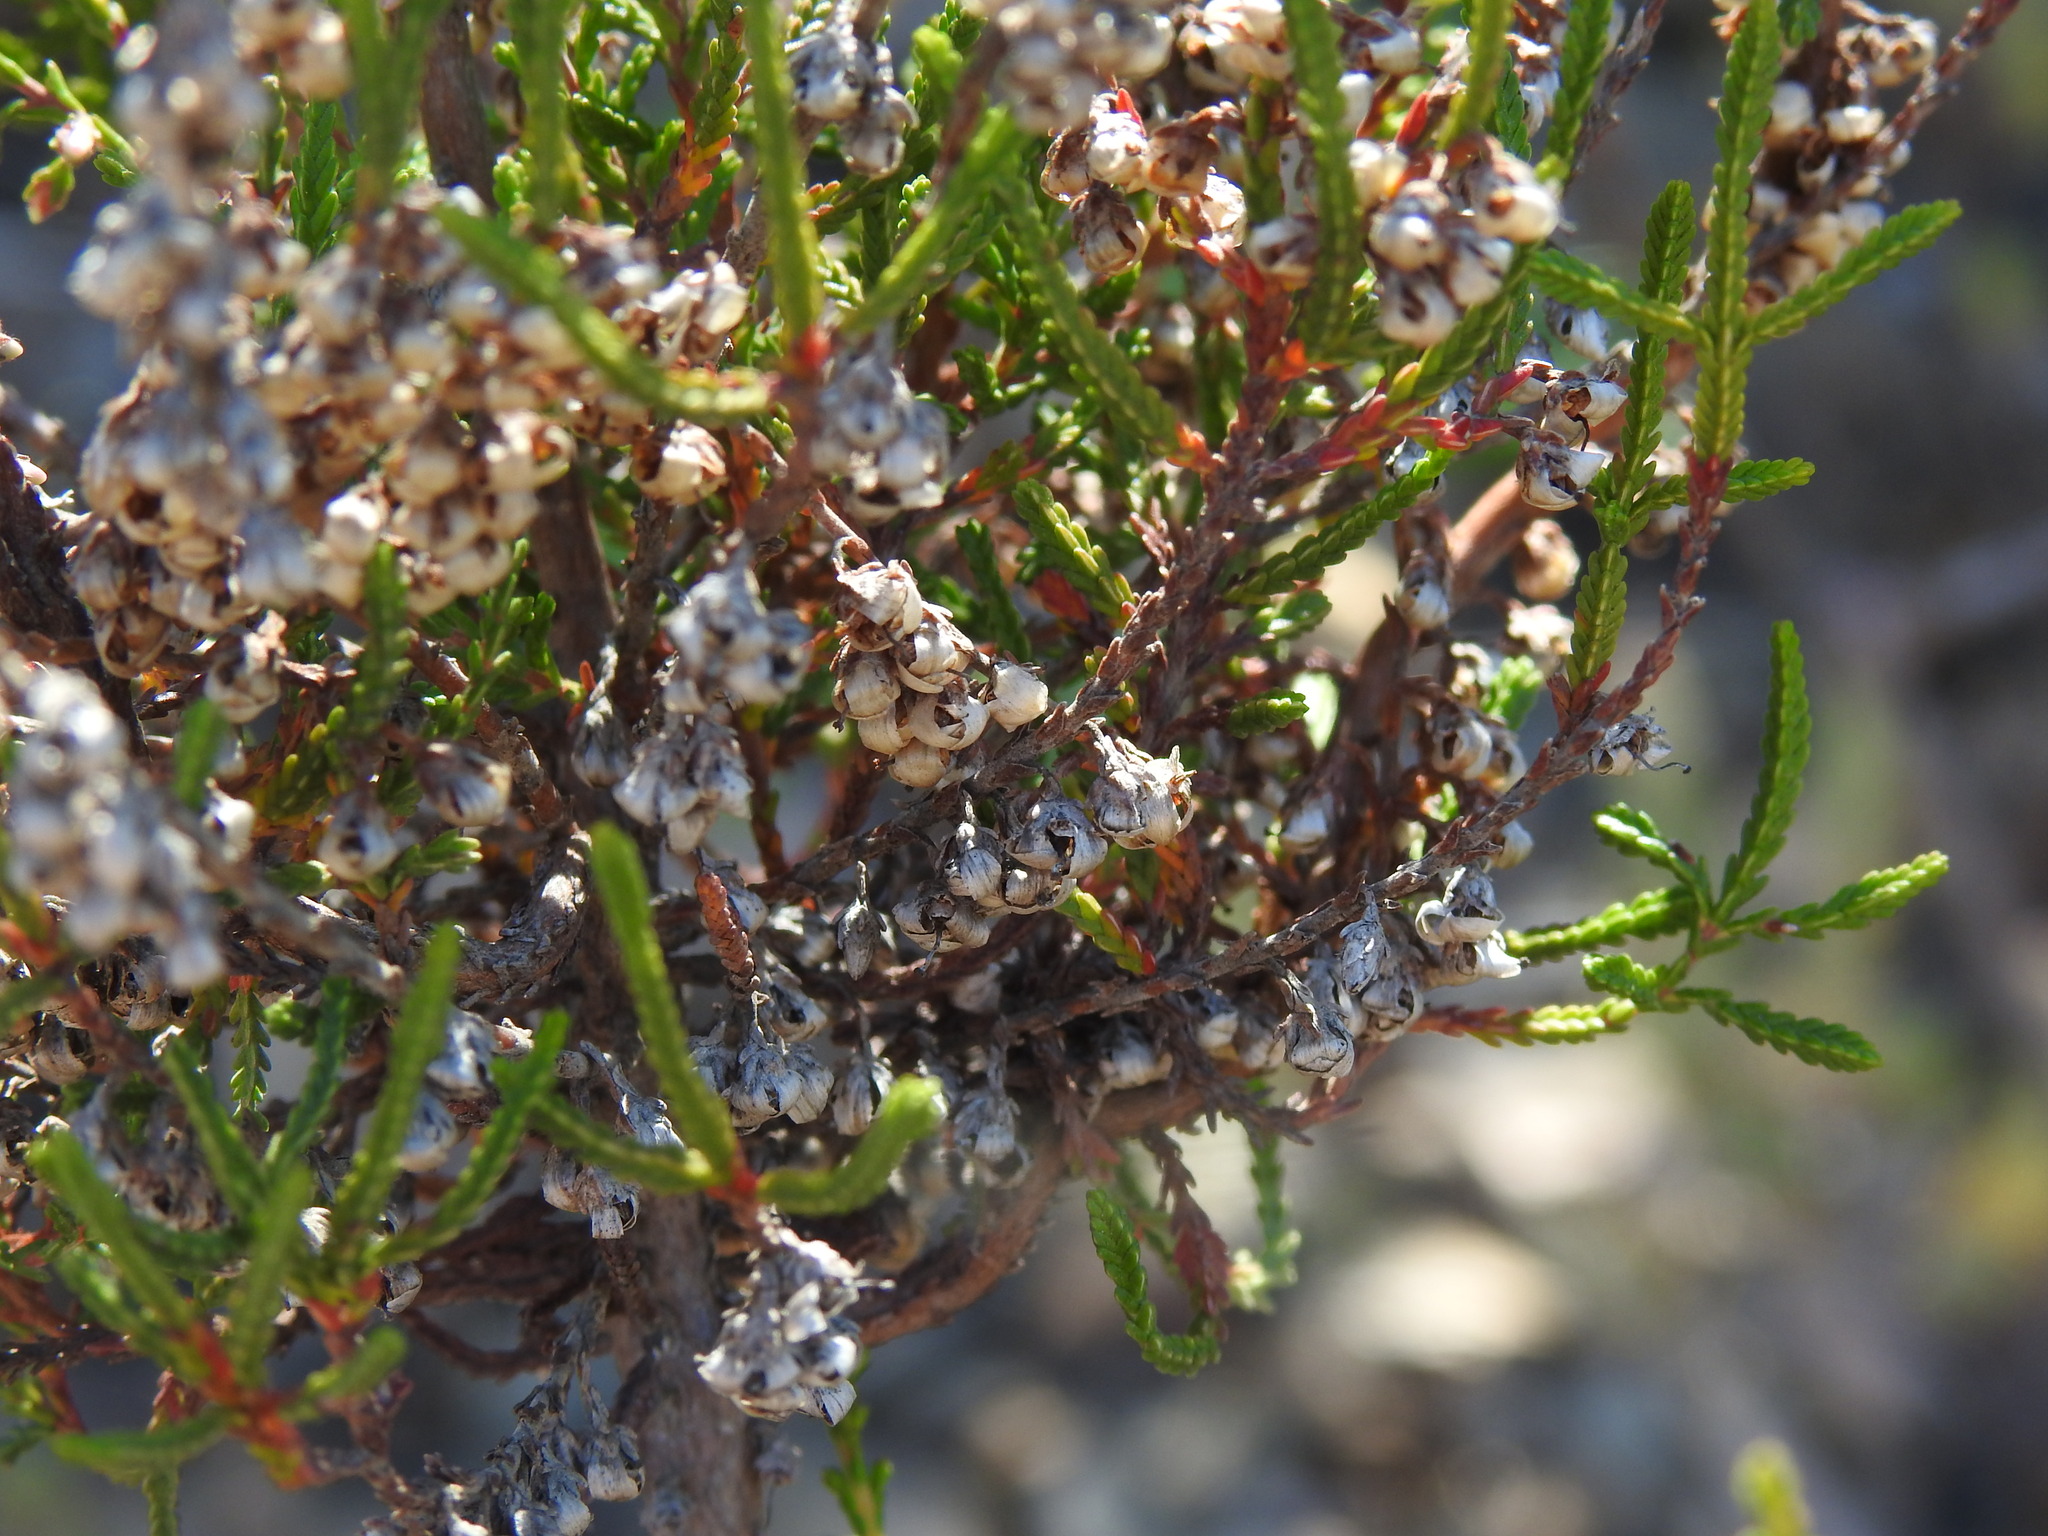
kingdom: Plantae
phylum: Tracheophyta
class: Magnoliopsida
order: Ericales
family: Ericaceae
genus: Calluna
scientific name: Calluna vulgaris
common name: Heather
